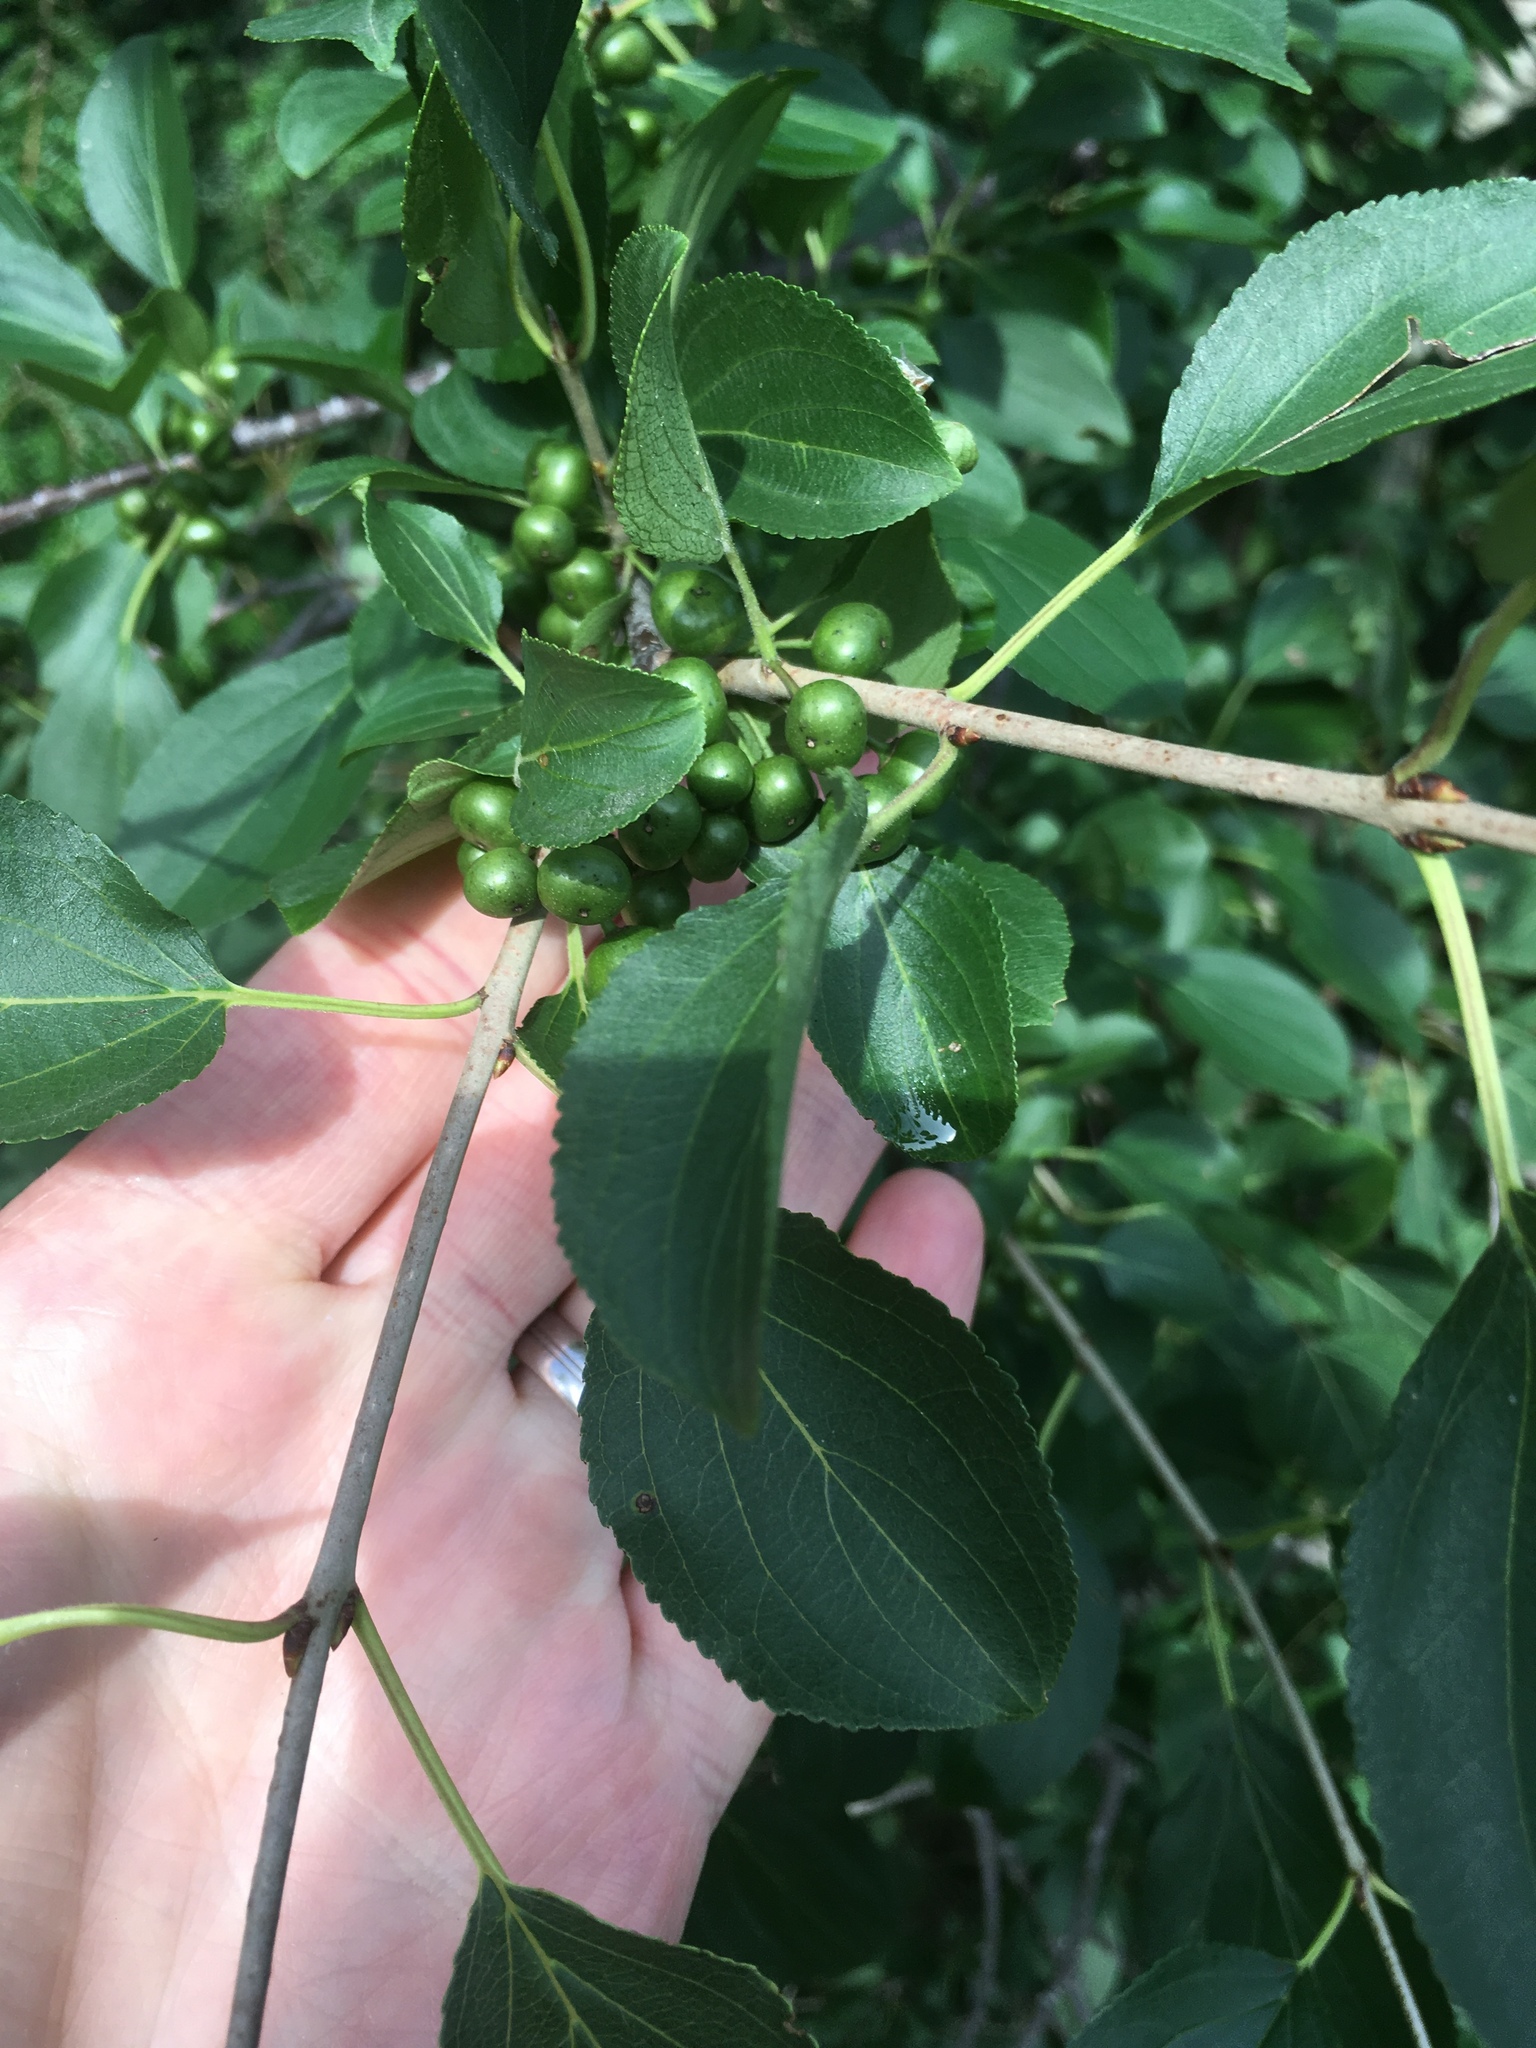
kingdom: Plantae
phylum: Tracheophyta
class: Magnoliopsida
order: Rosales
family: Rhamnaceae
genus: Rhamnus
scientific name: Rhamnus cathartica
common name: Common buckthorn
